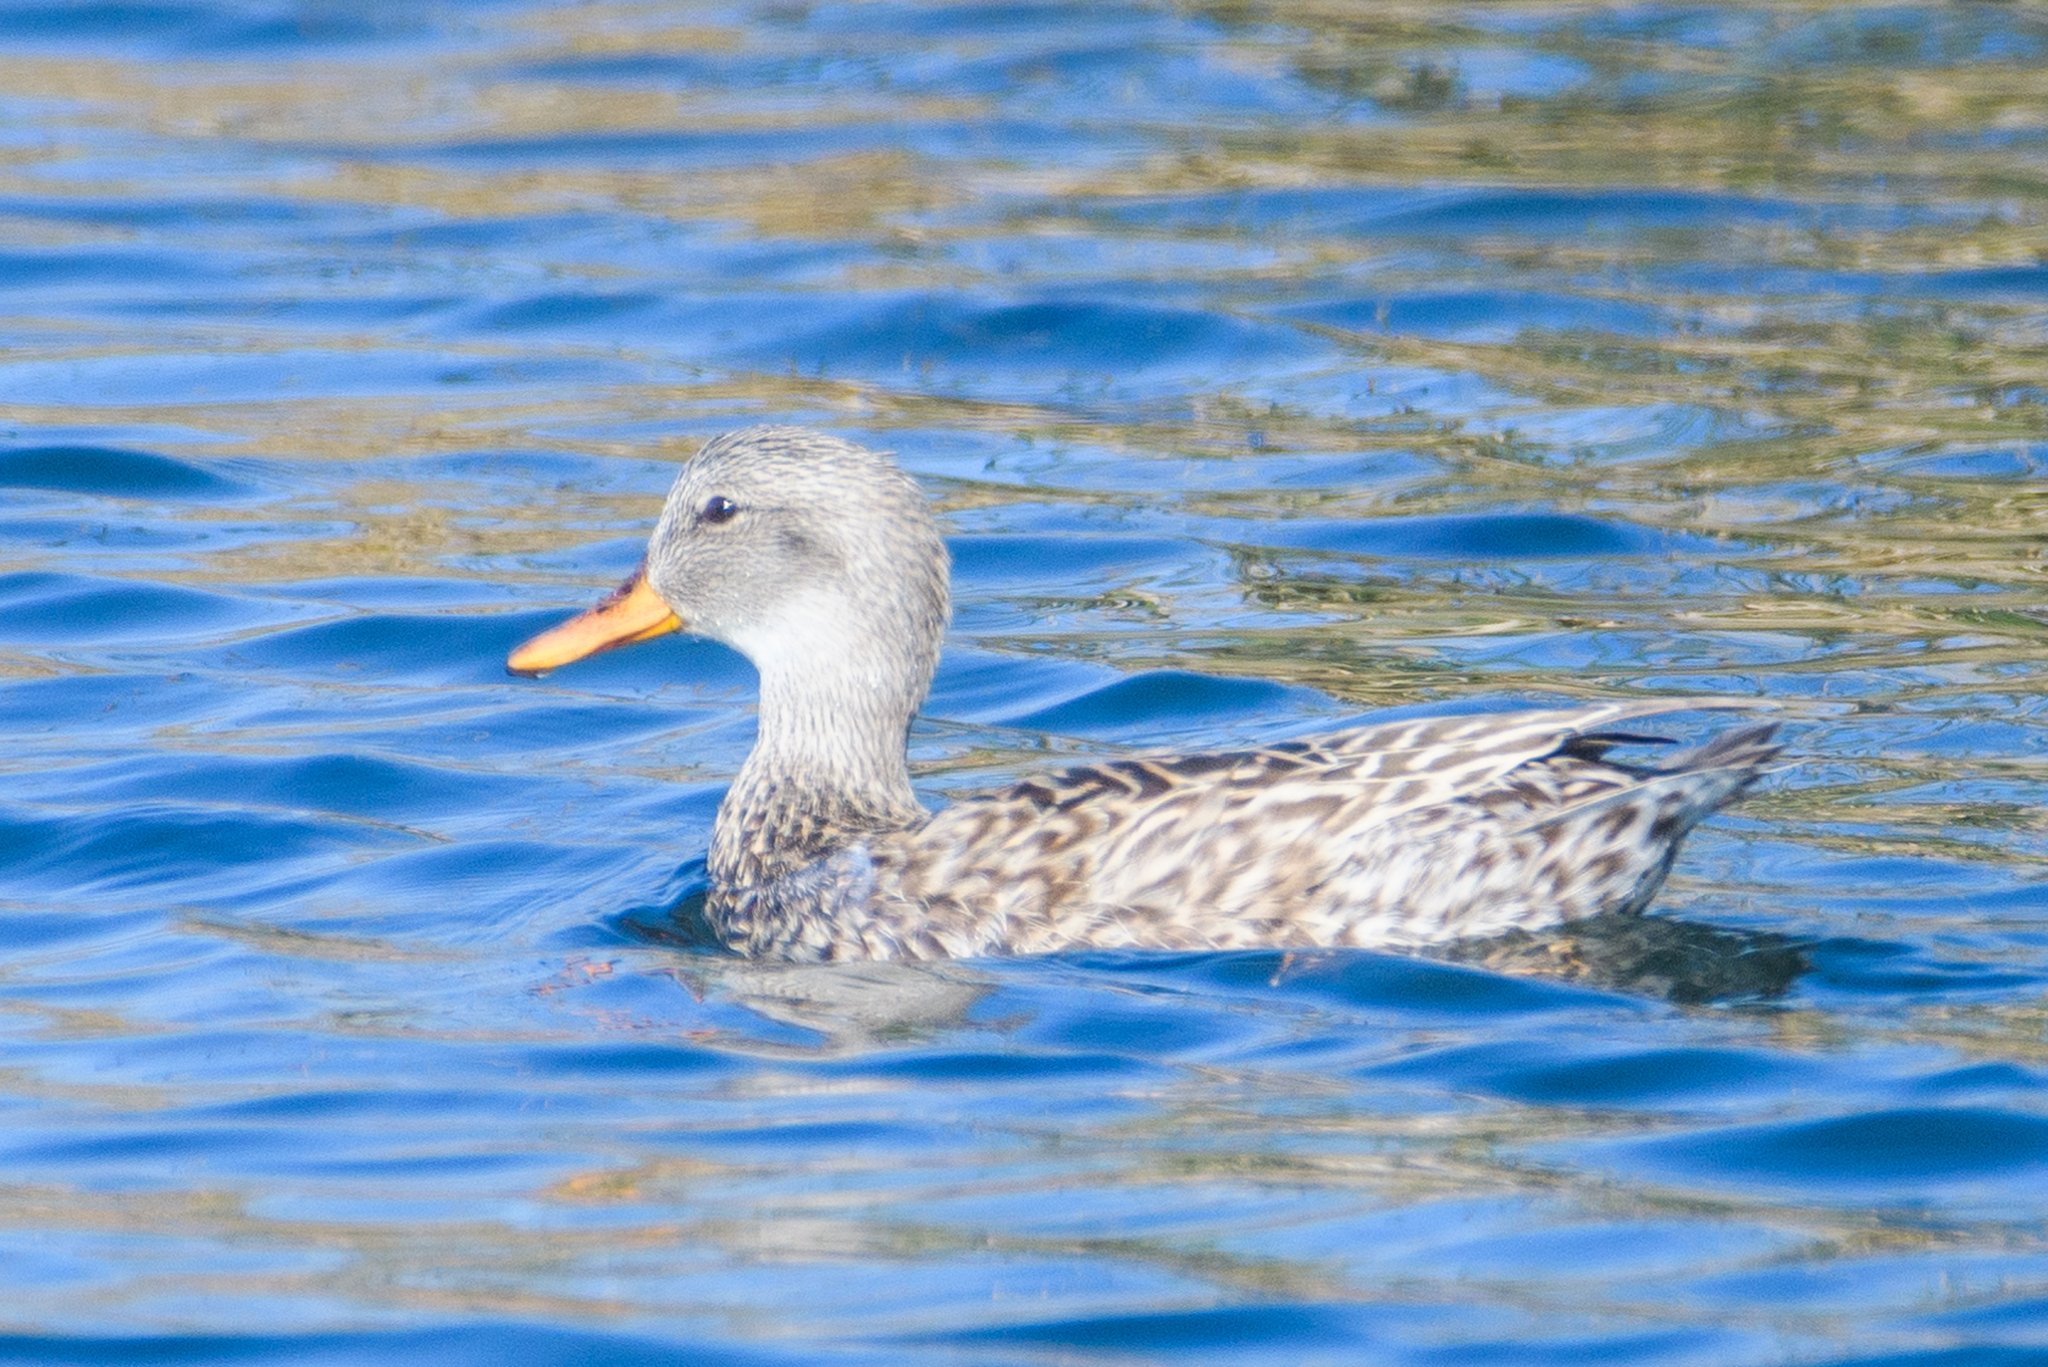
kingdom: Animalia
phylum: Chordata
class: Aves
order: Anseriformes
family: Anatidae
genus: Mareca
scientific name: Mareca strepera
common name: Gadwall
